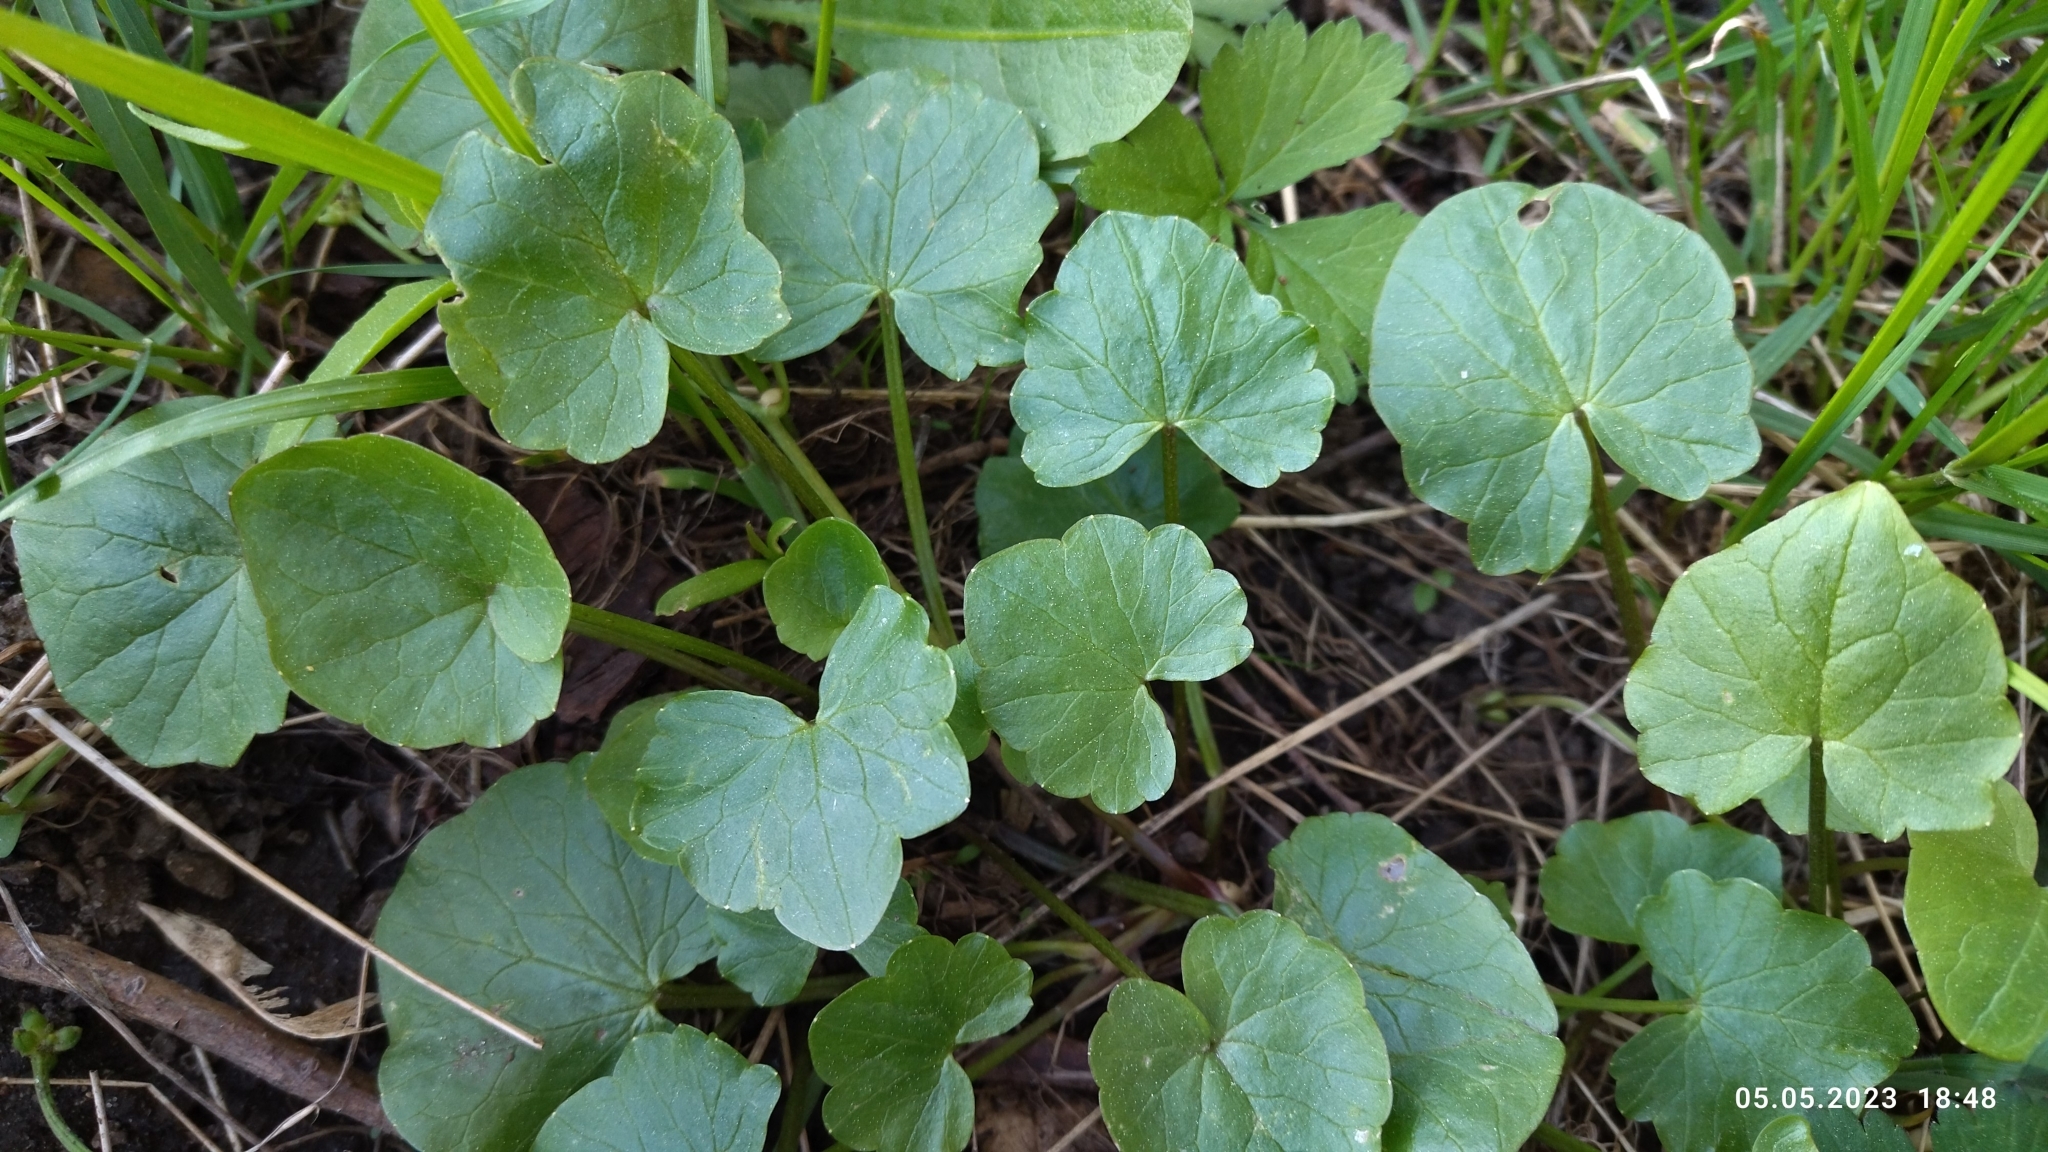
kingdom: Plantae
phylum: Tracheophyta
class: Magnoliopsida
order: Ranunculales
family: Ranunculaceae
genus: Ficaria
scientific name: Ficaria verna
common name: Lesser celandine
